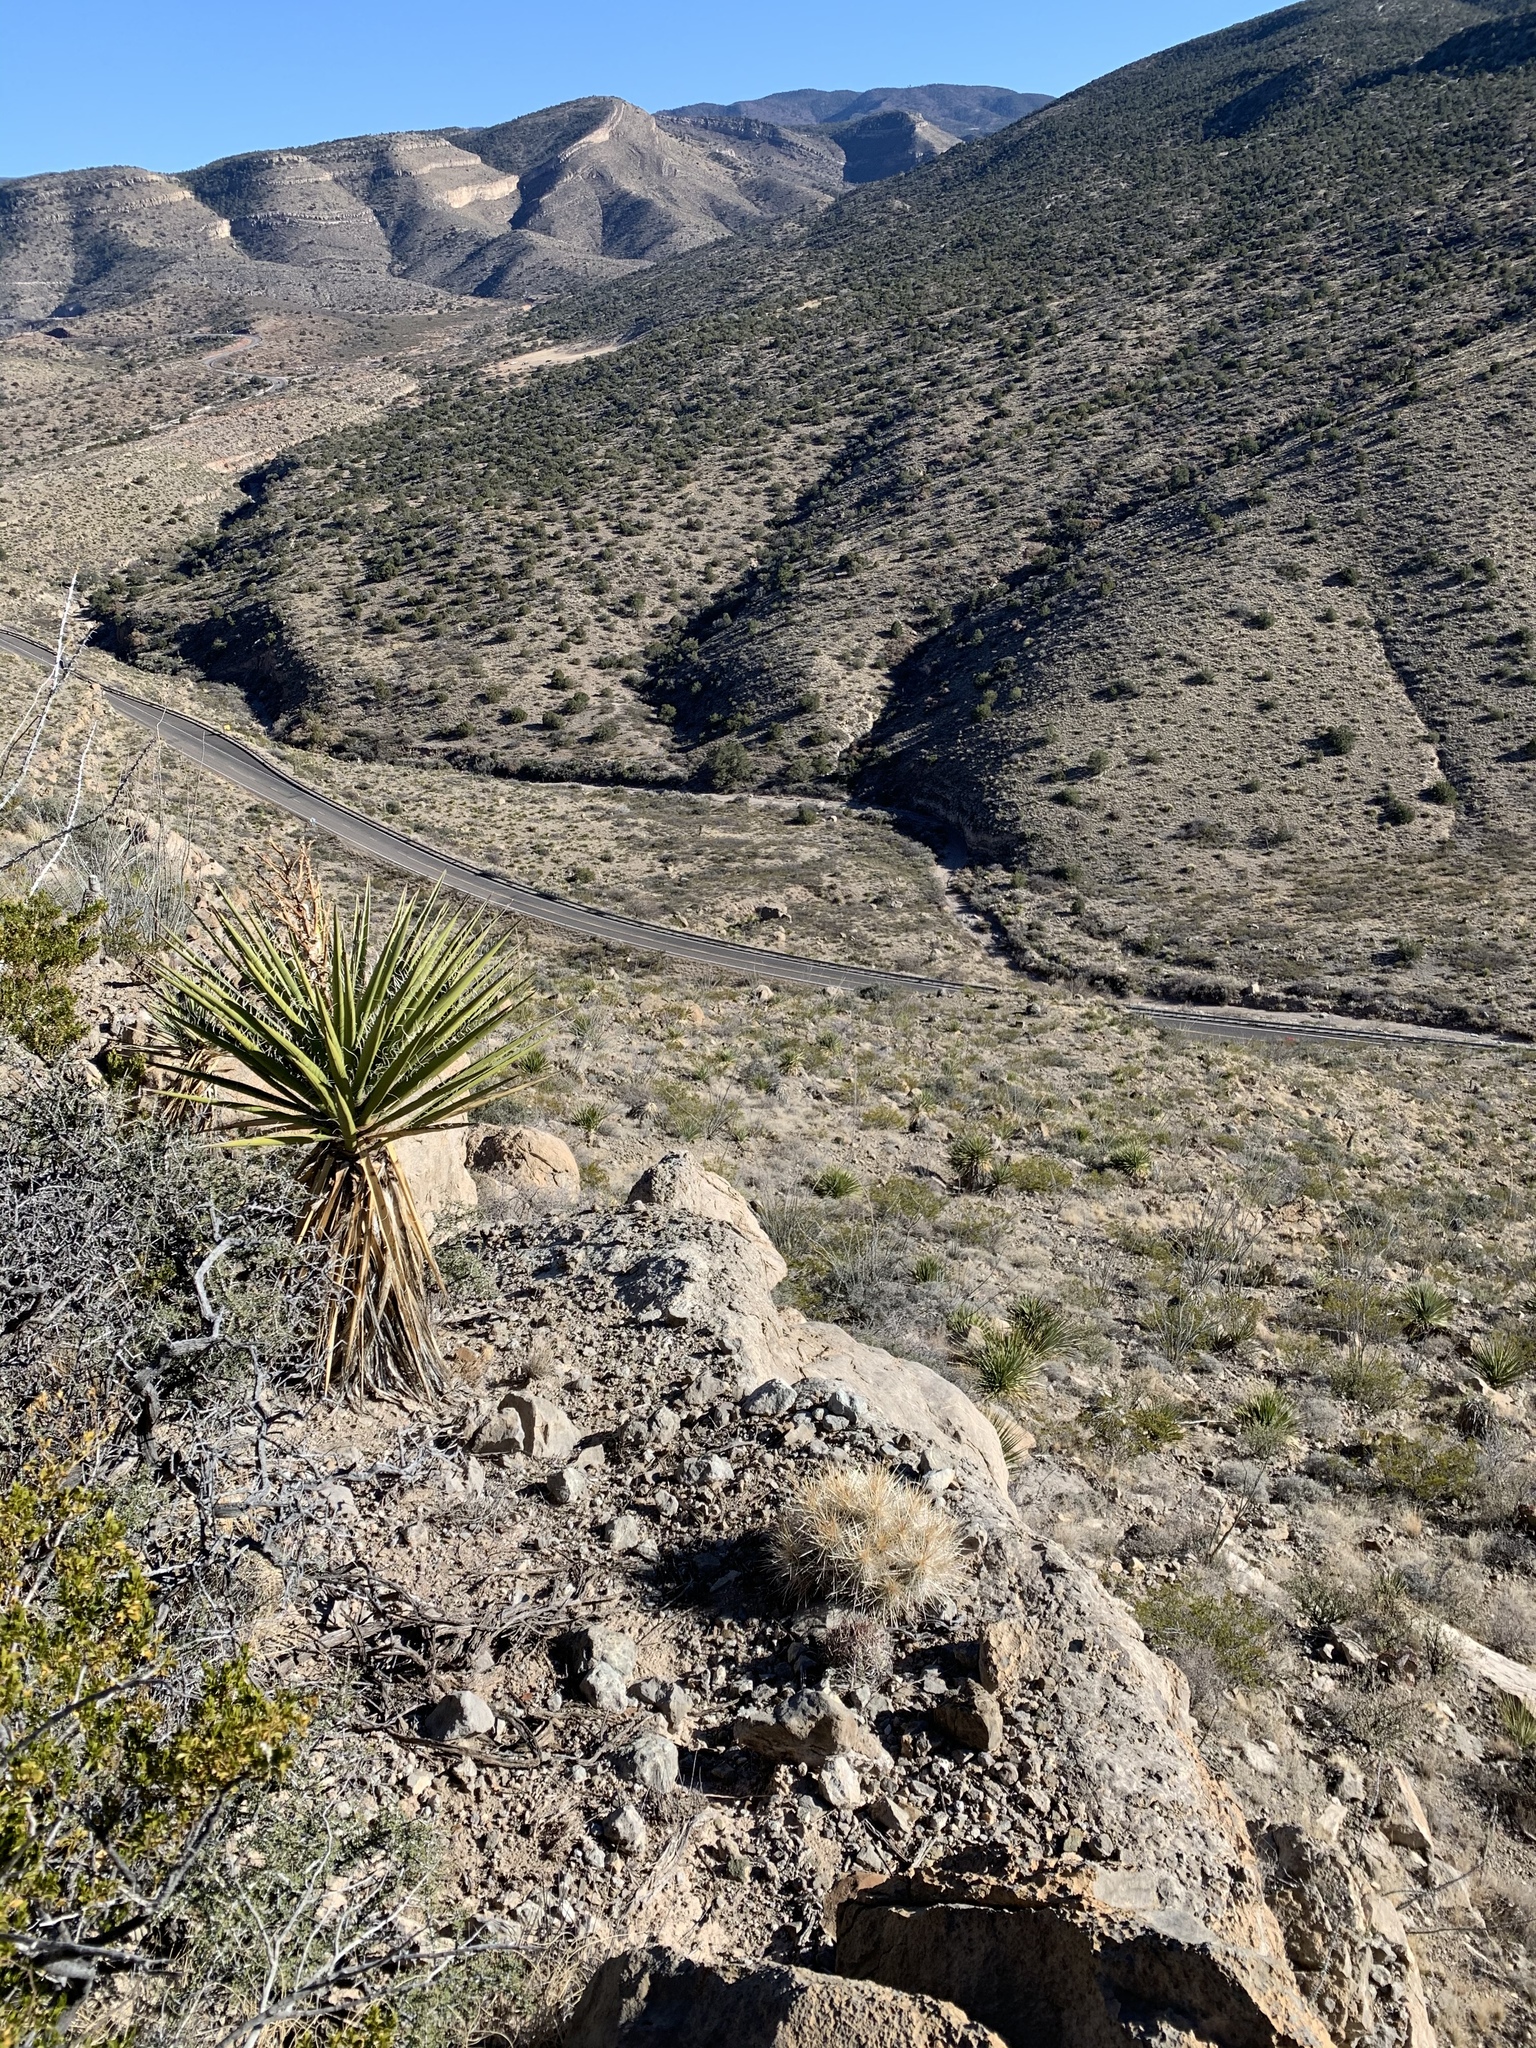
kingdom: Plantae
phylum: Tracheophyta
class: Magnoliopsida
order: Caryophyllales
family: Cactaceae
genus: Echinocereus
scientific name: Echinocereus stramineus
